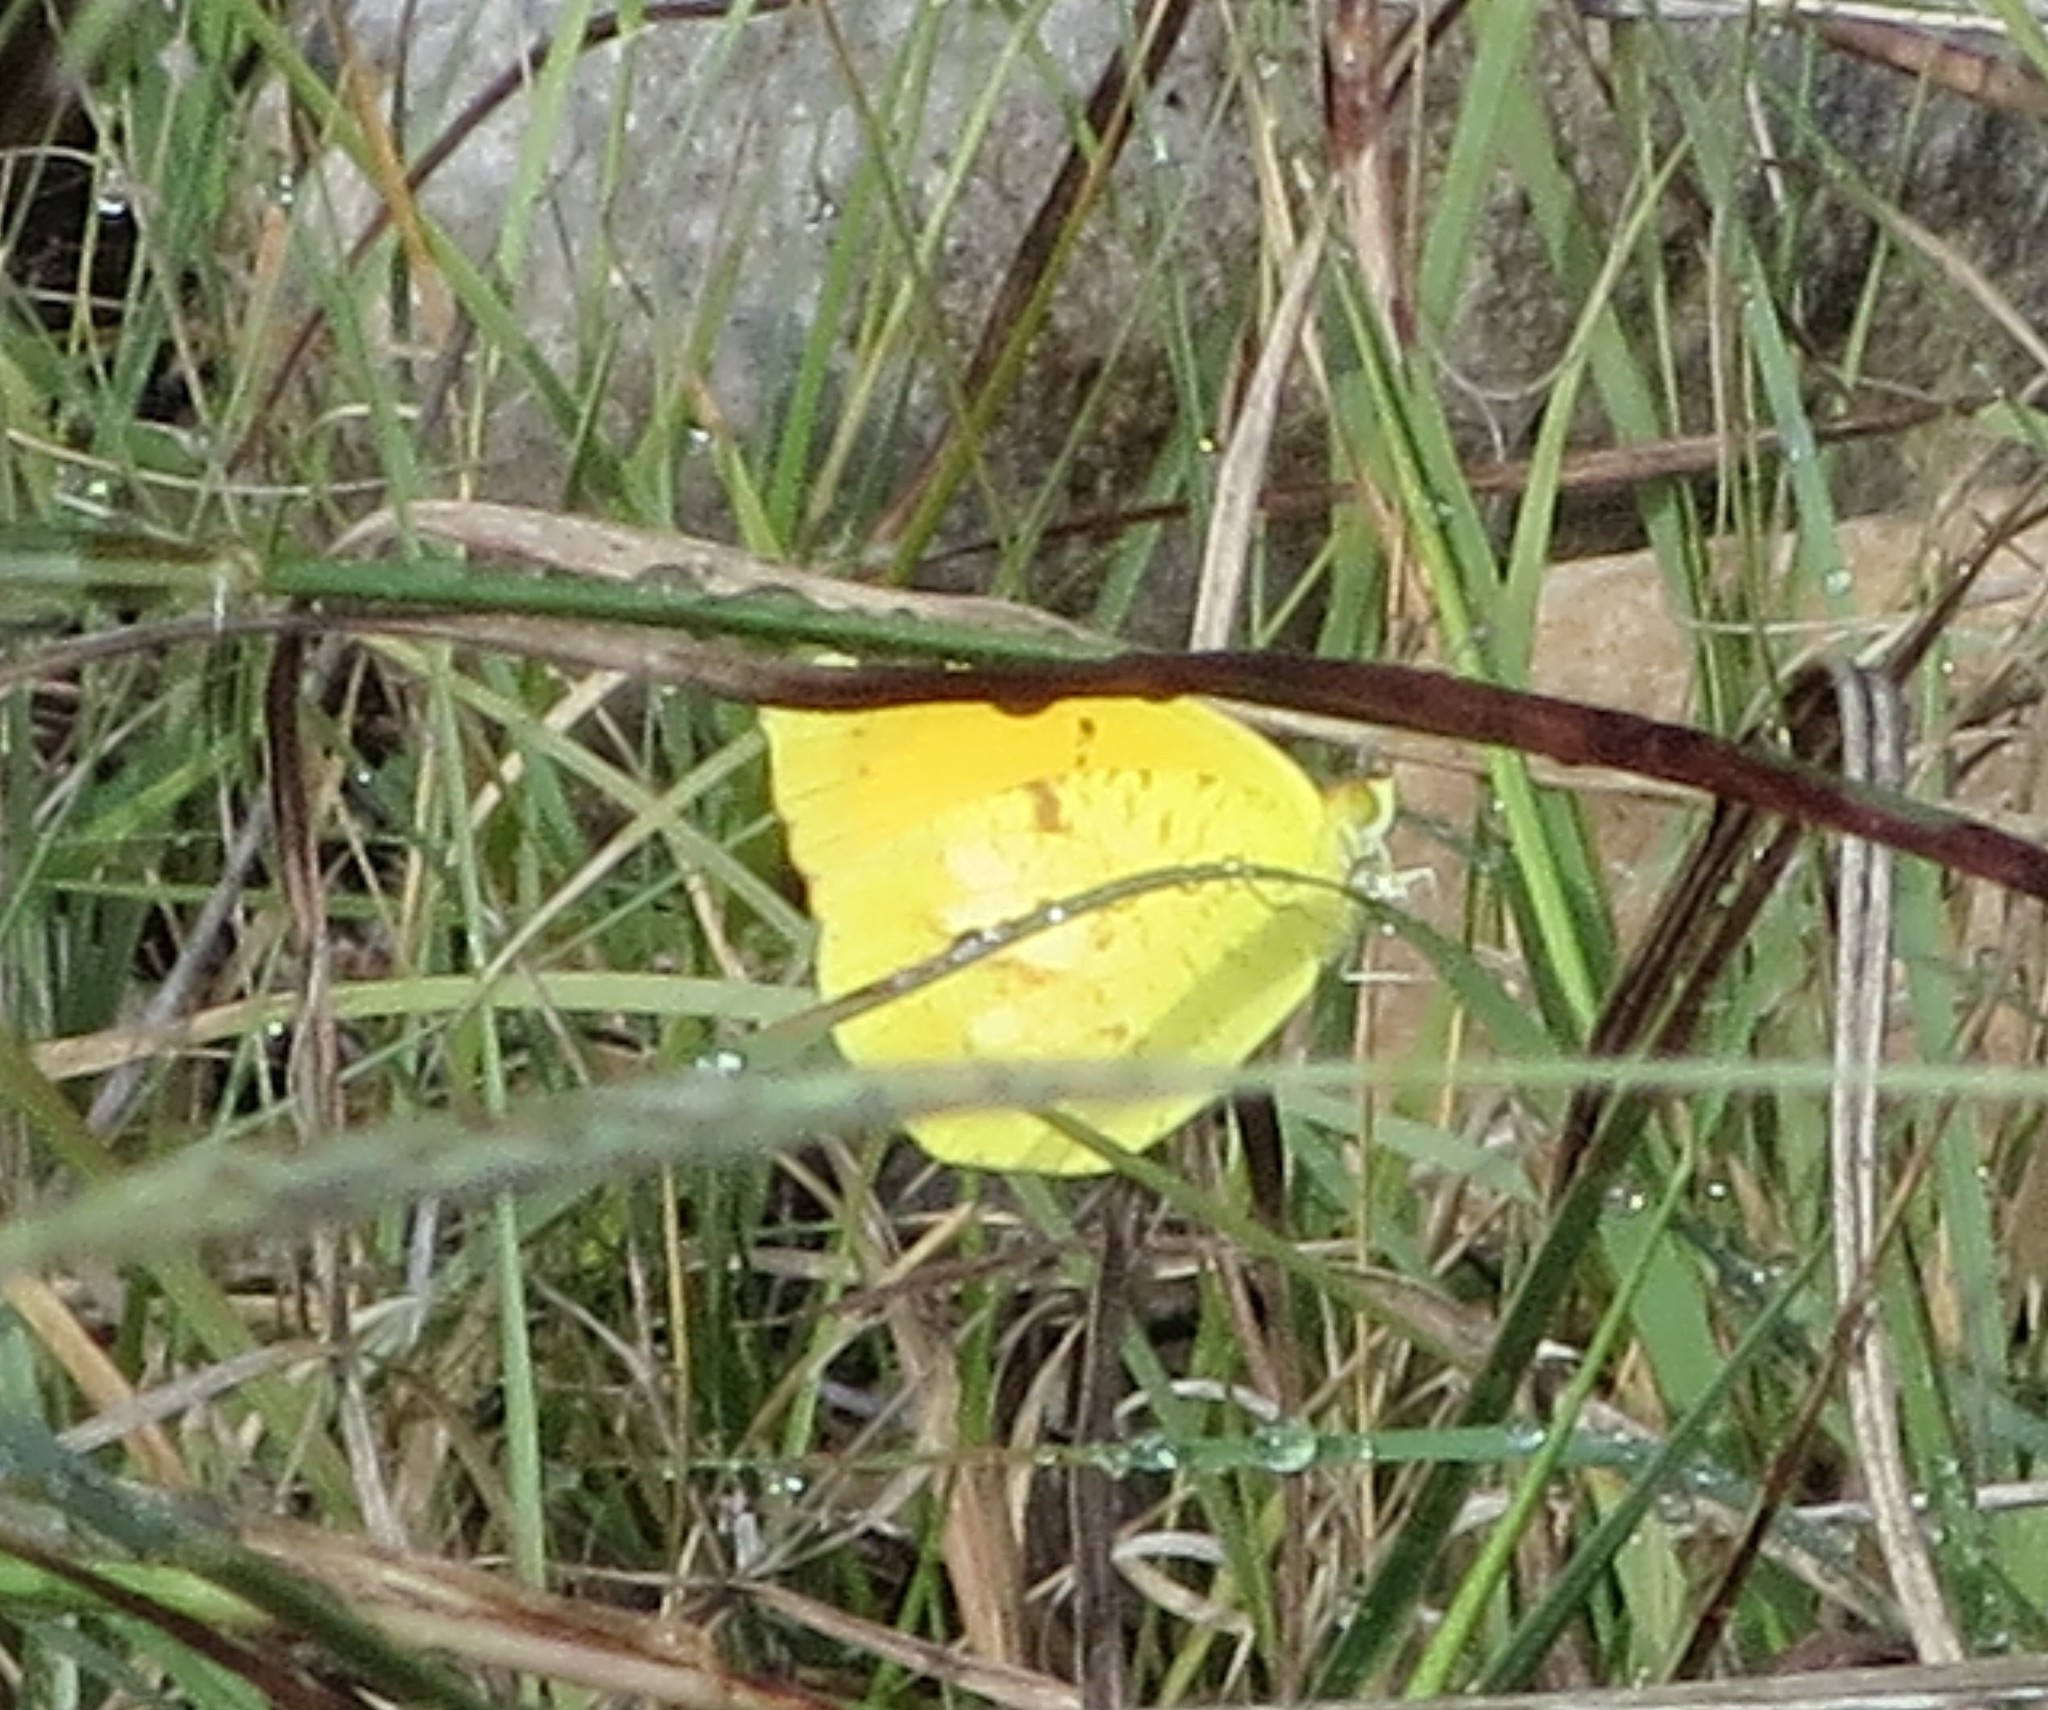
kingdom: Animalia
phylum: Arthropoda
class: Insecta
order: Lepidoptera
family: Pieridae
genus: Abaeis
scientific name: Abaeis nicippe
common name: Sleepy orange
